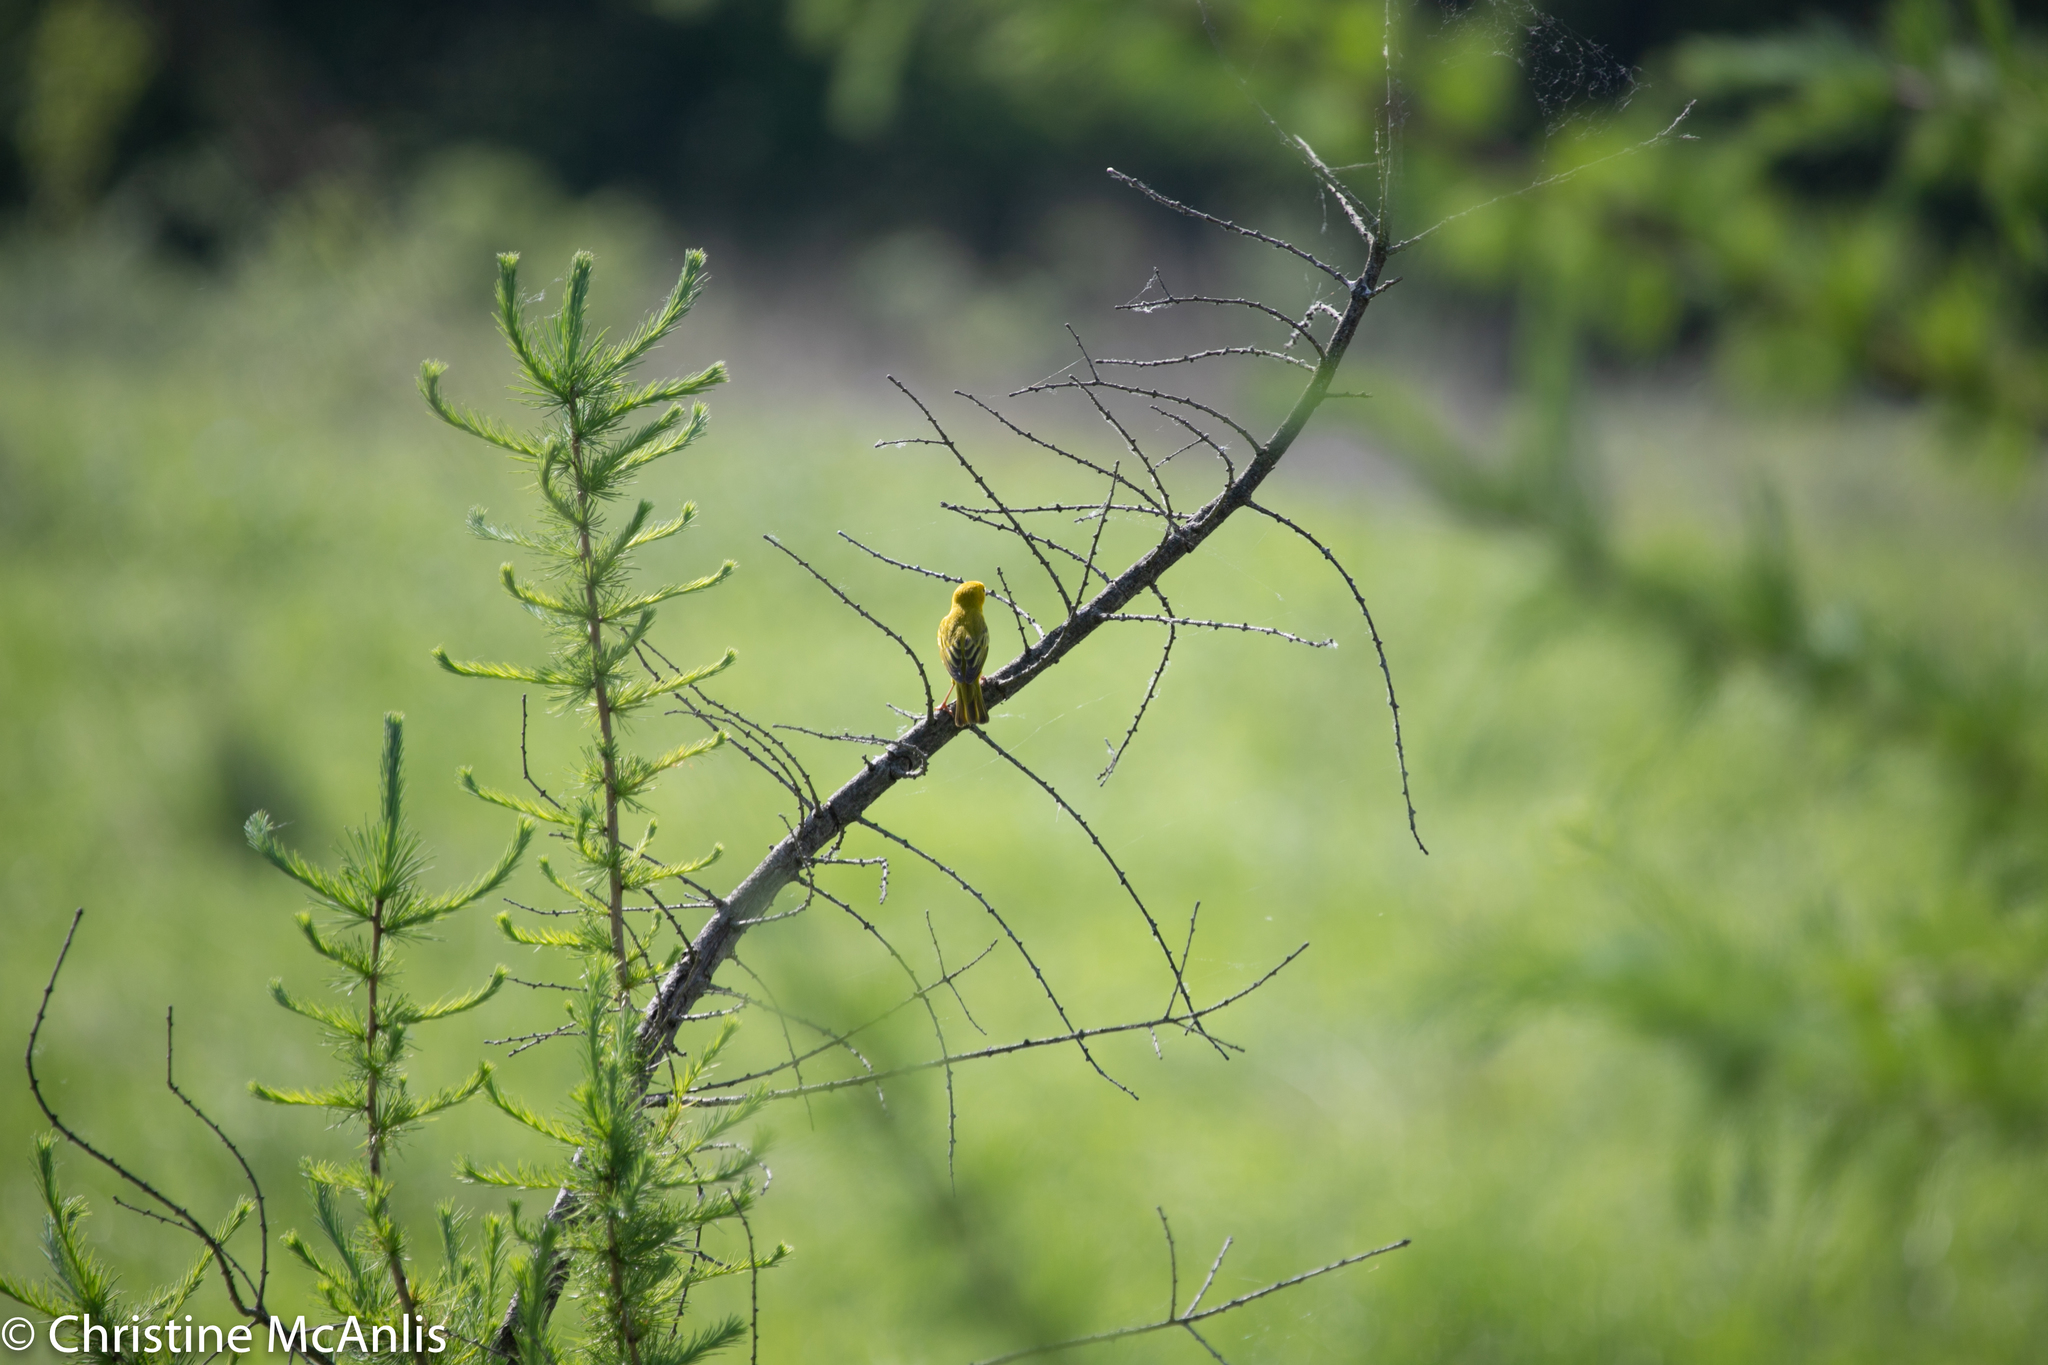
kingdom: Animalia
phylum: Chordata
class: Aves
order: Passeriformes
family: Parulidae
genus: Setophaga
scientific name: Setophaga petechia
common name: Yellow warbler
